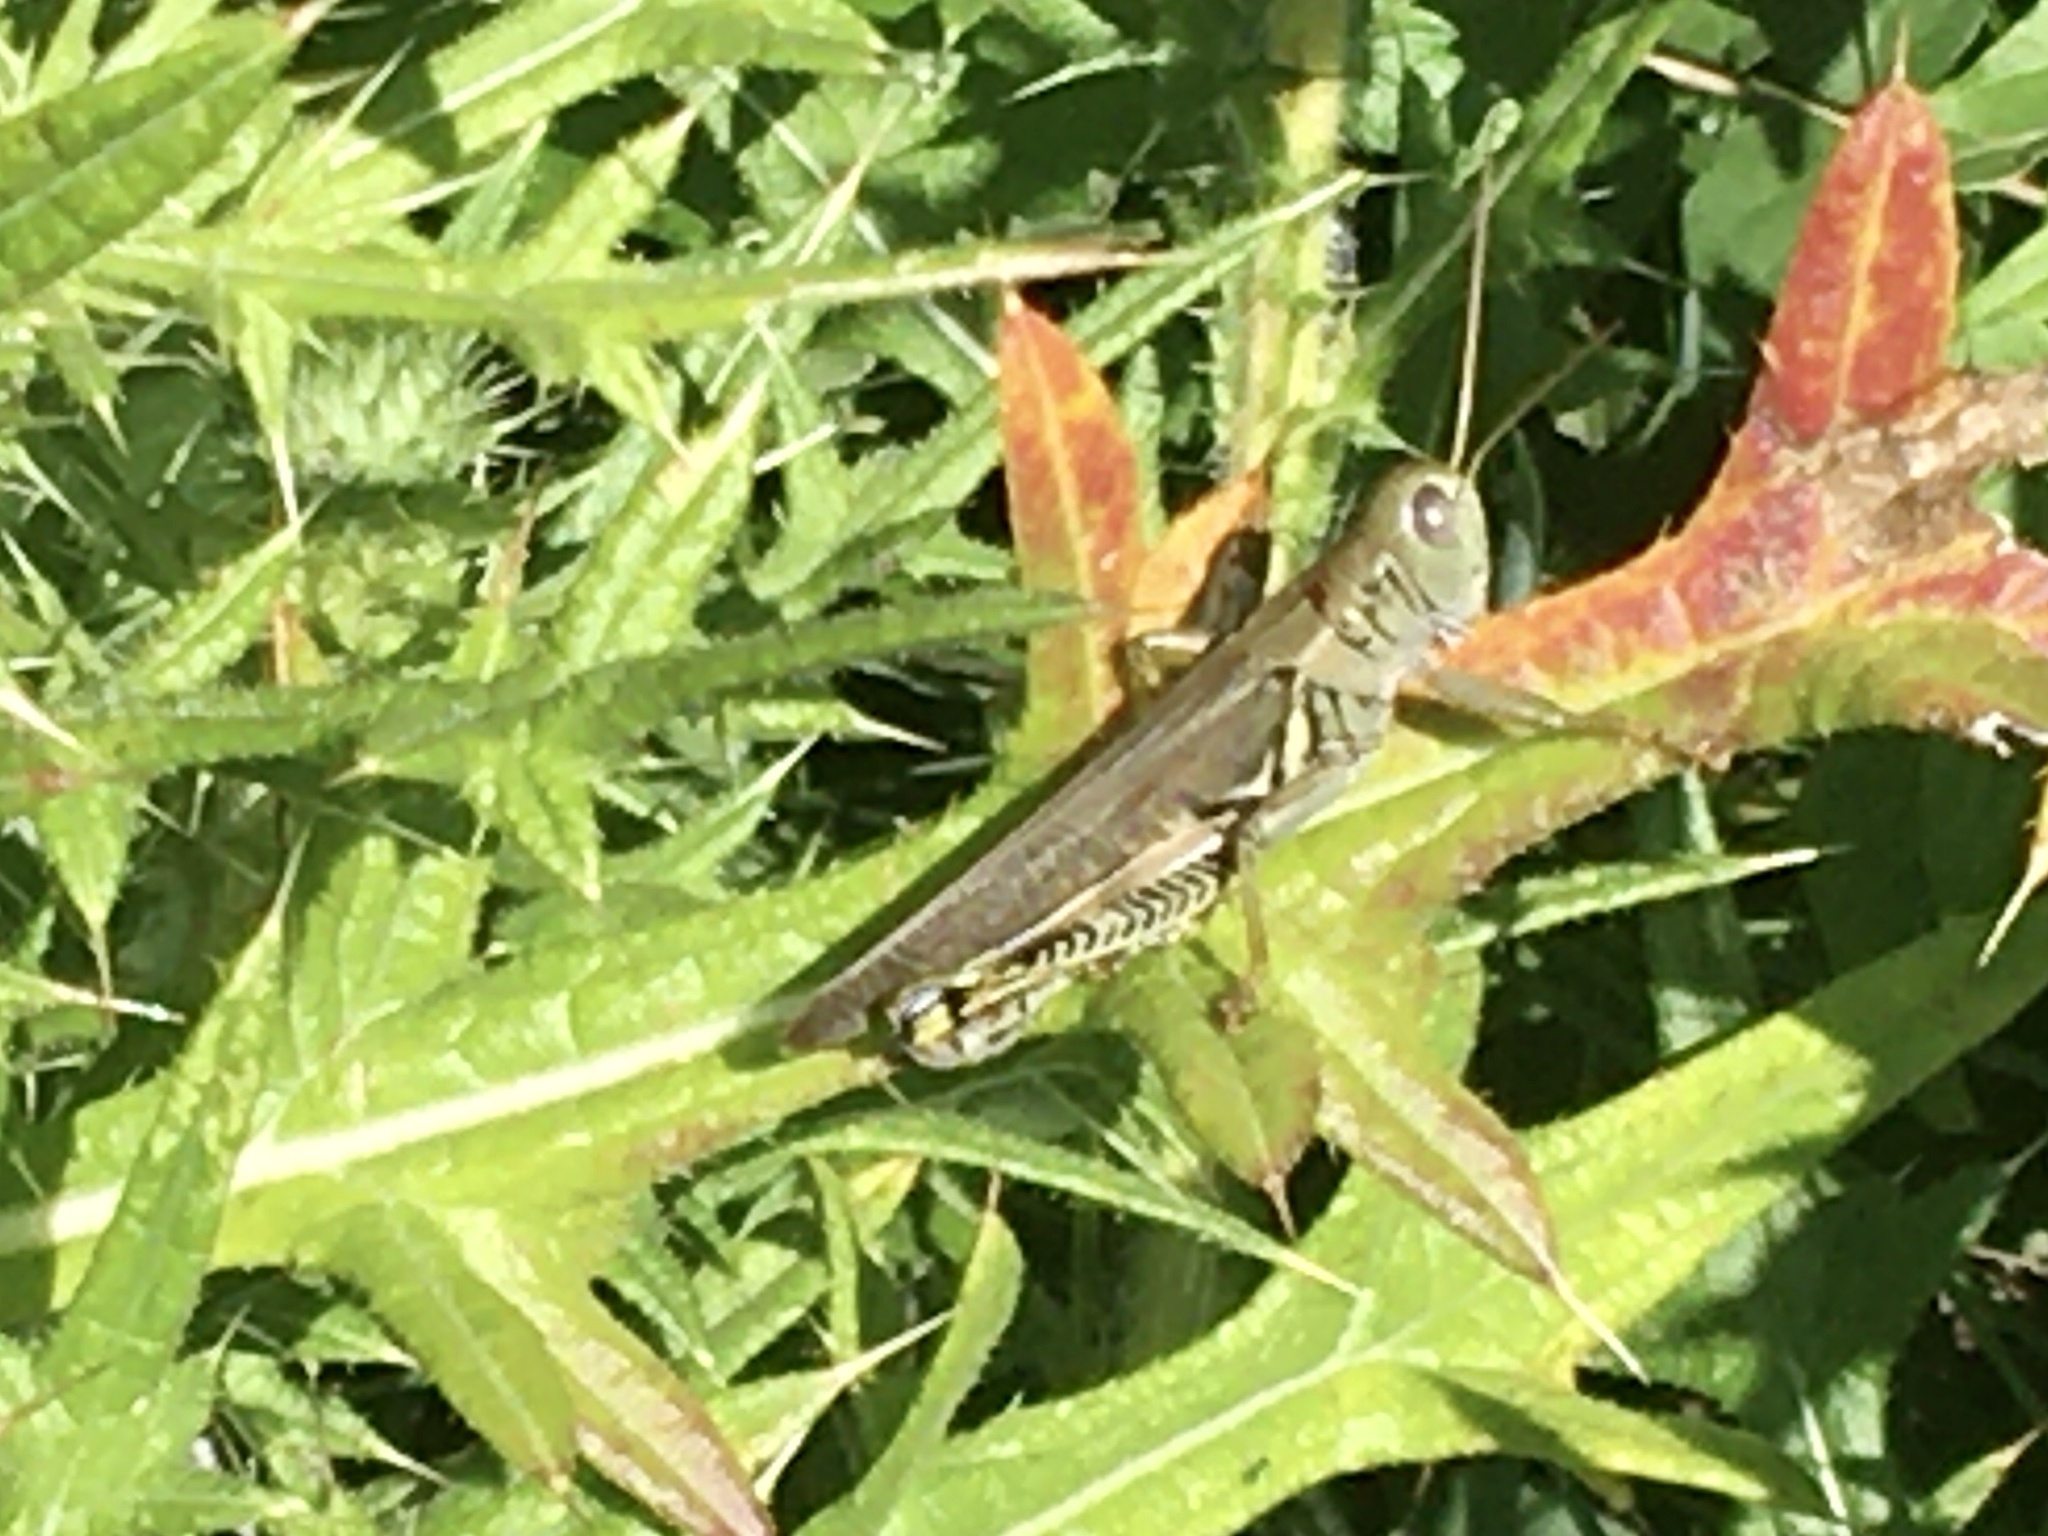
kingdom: Animalia
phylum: Arthropoda
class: Insecta
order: Orthoptera
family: Acrididae
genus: Melanoplus
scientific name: Melanoplus differentialis
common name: Differential grasshopper
